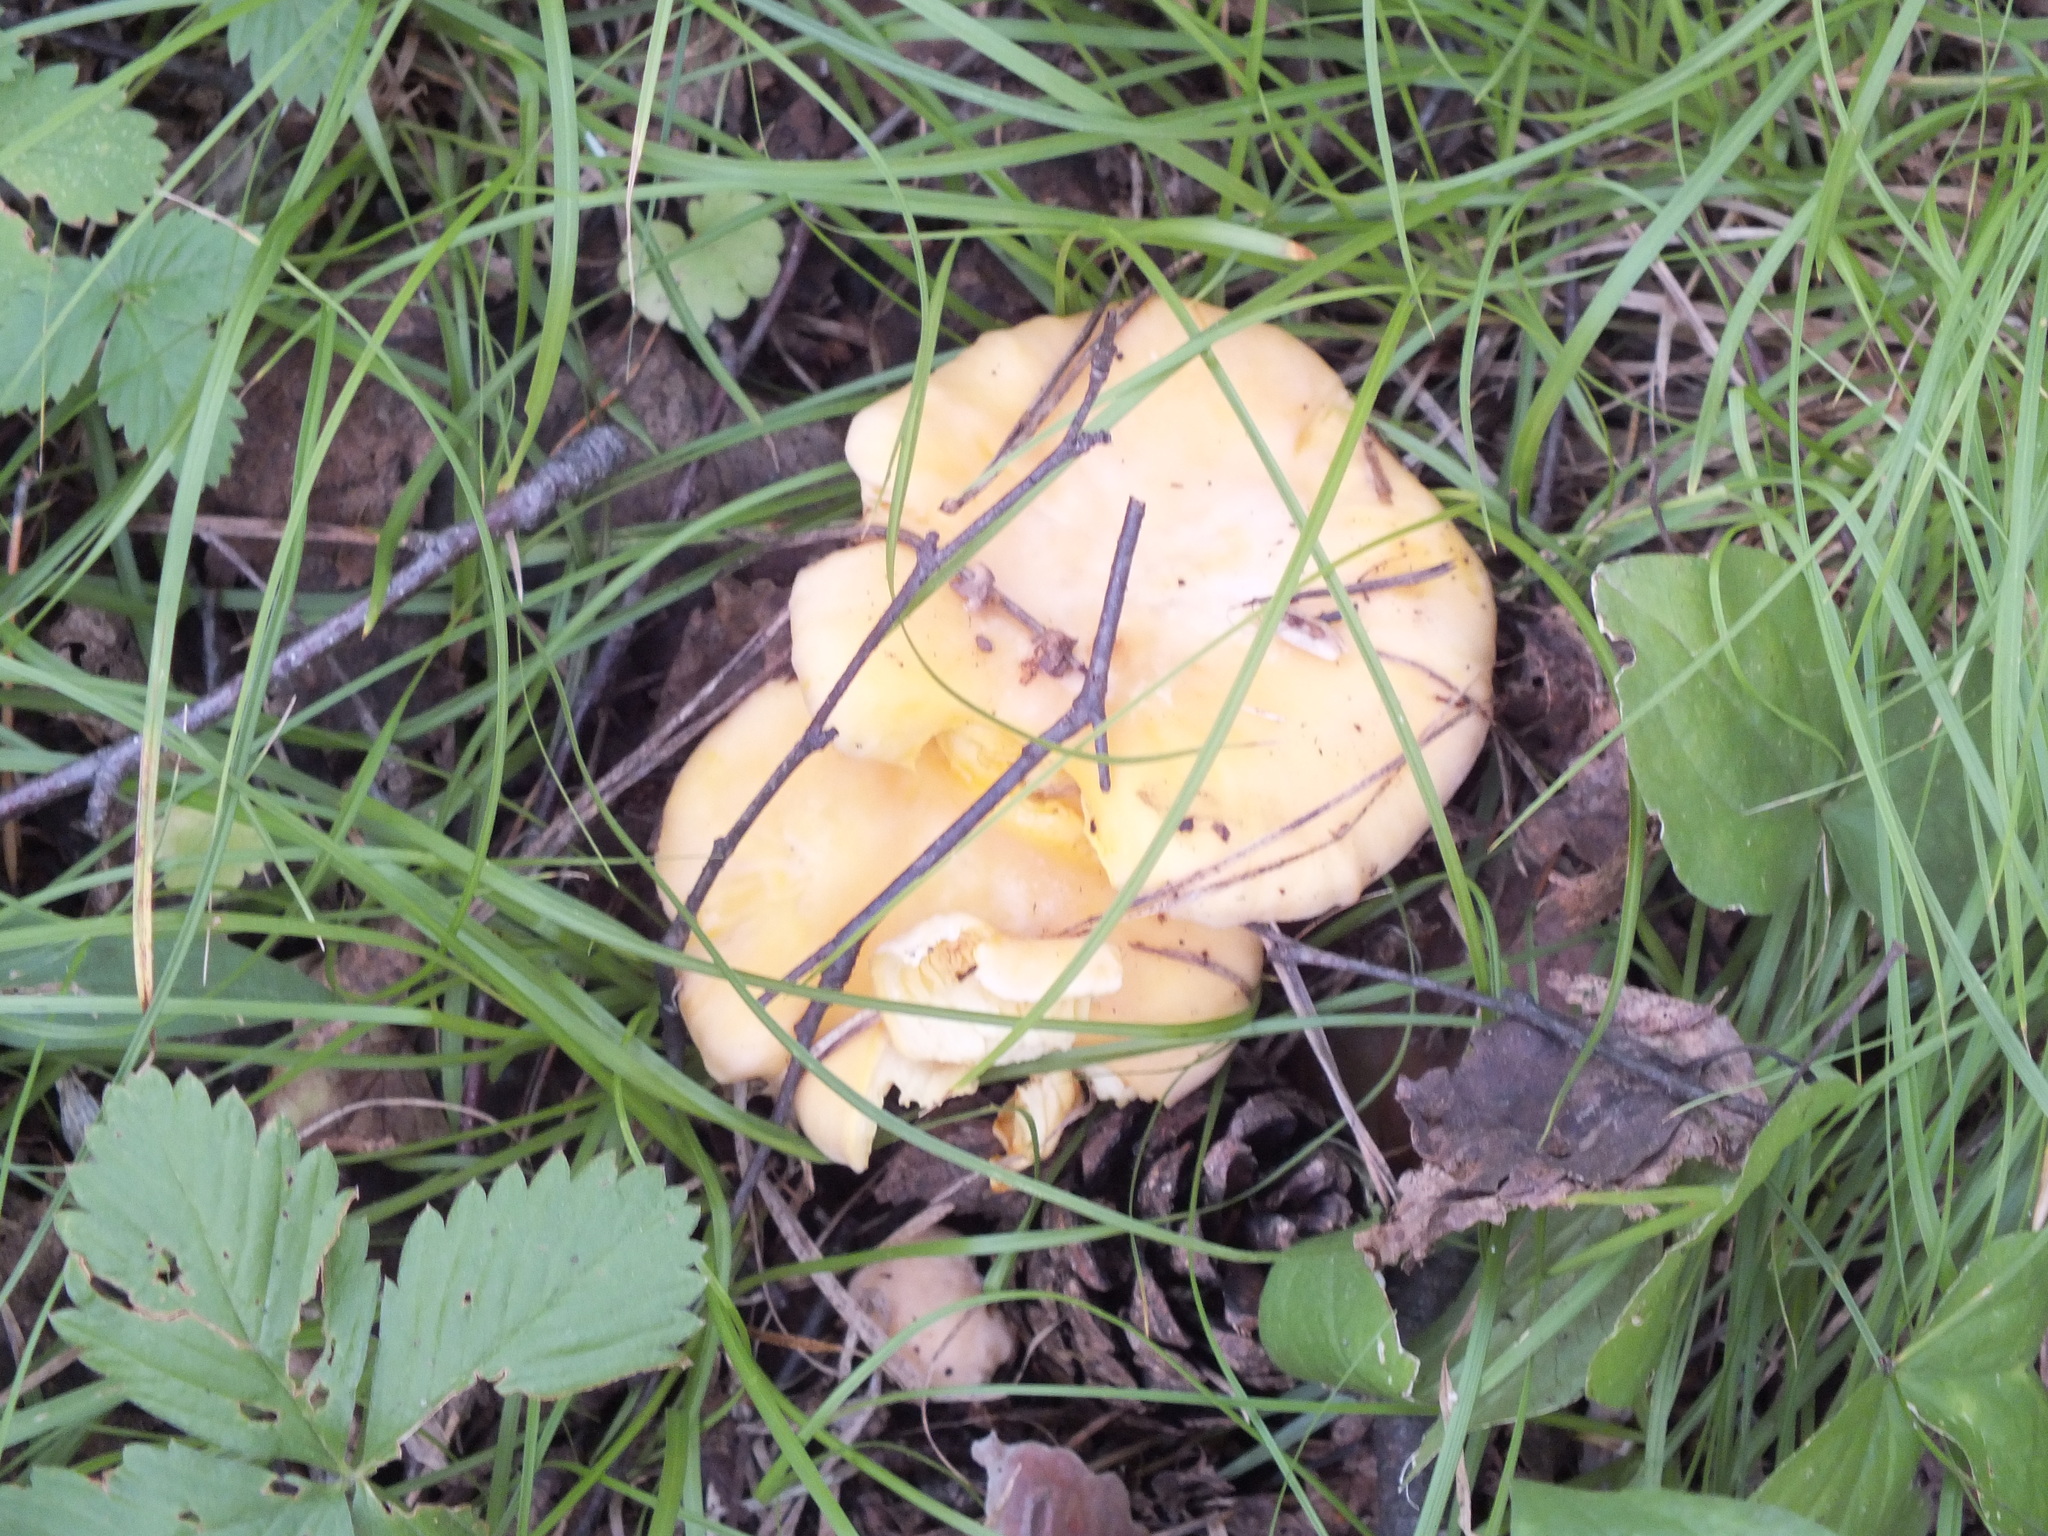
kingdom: Fungi
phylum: Basidiomycota
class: Agaricomycetes
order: Cantharellales
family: Hydnaceae
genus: Cantharellus
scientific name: Cantharellus cibarius
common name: Chanterelle
